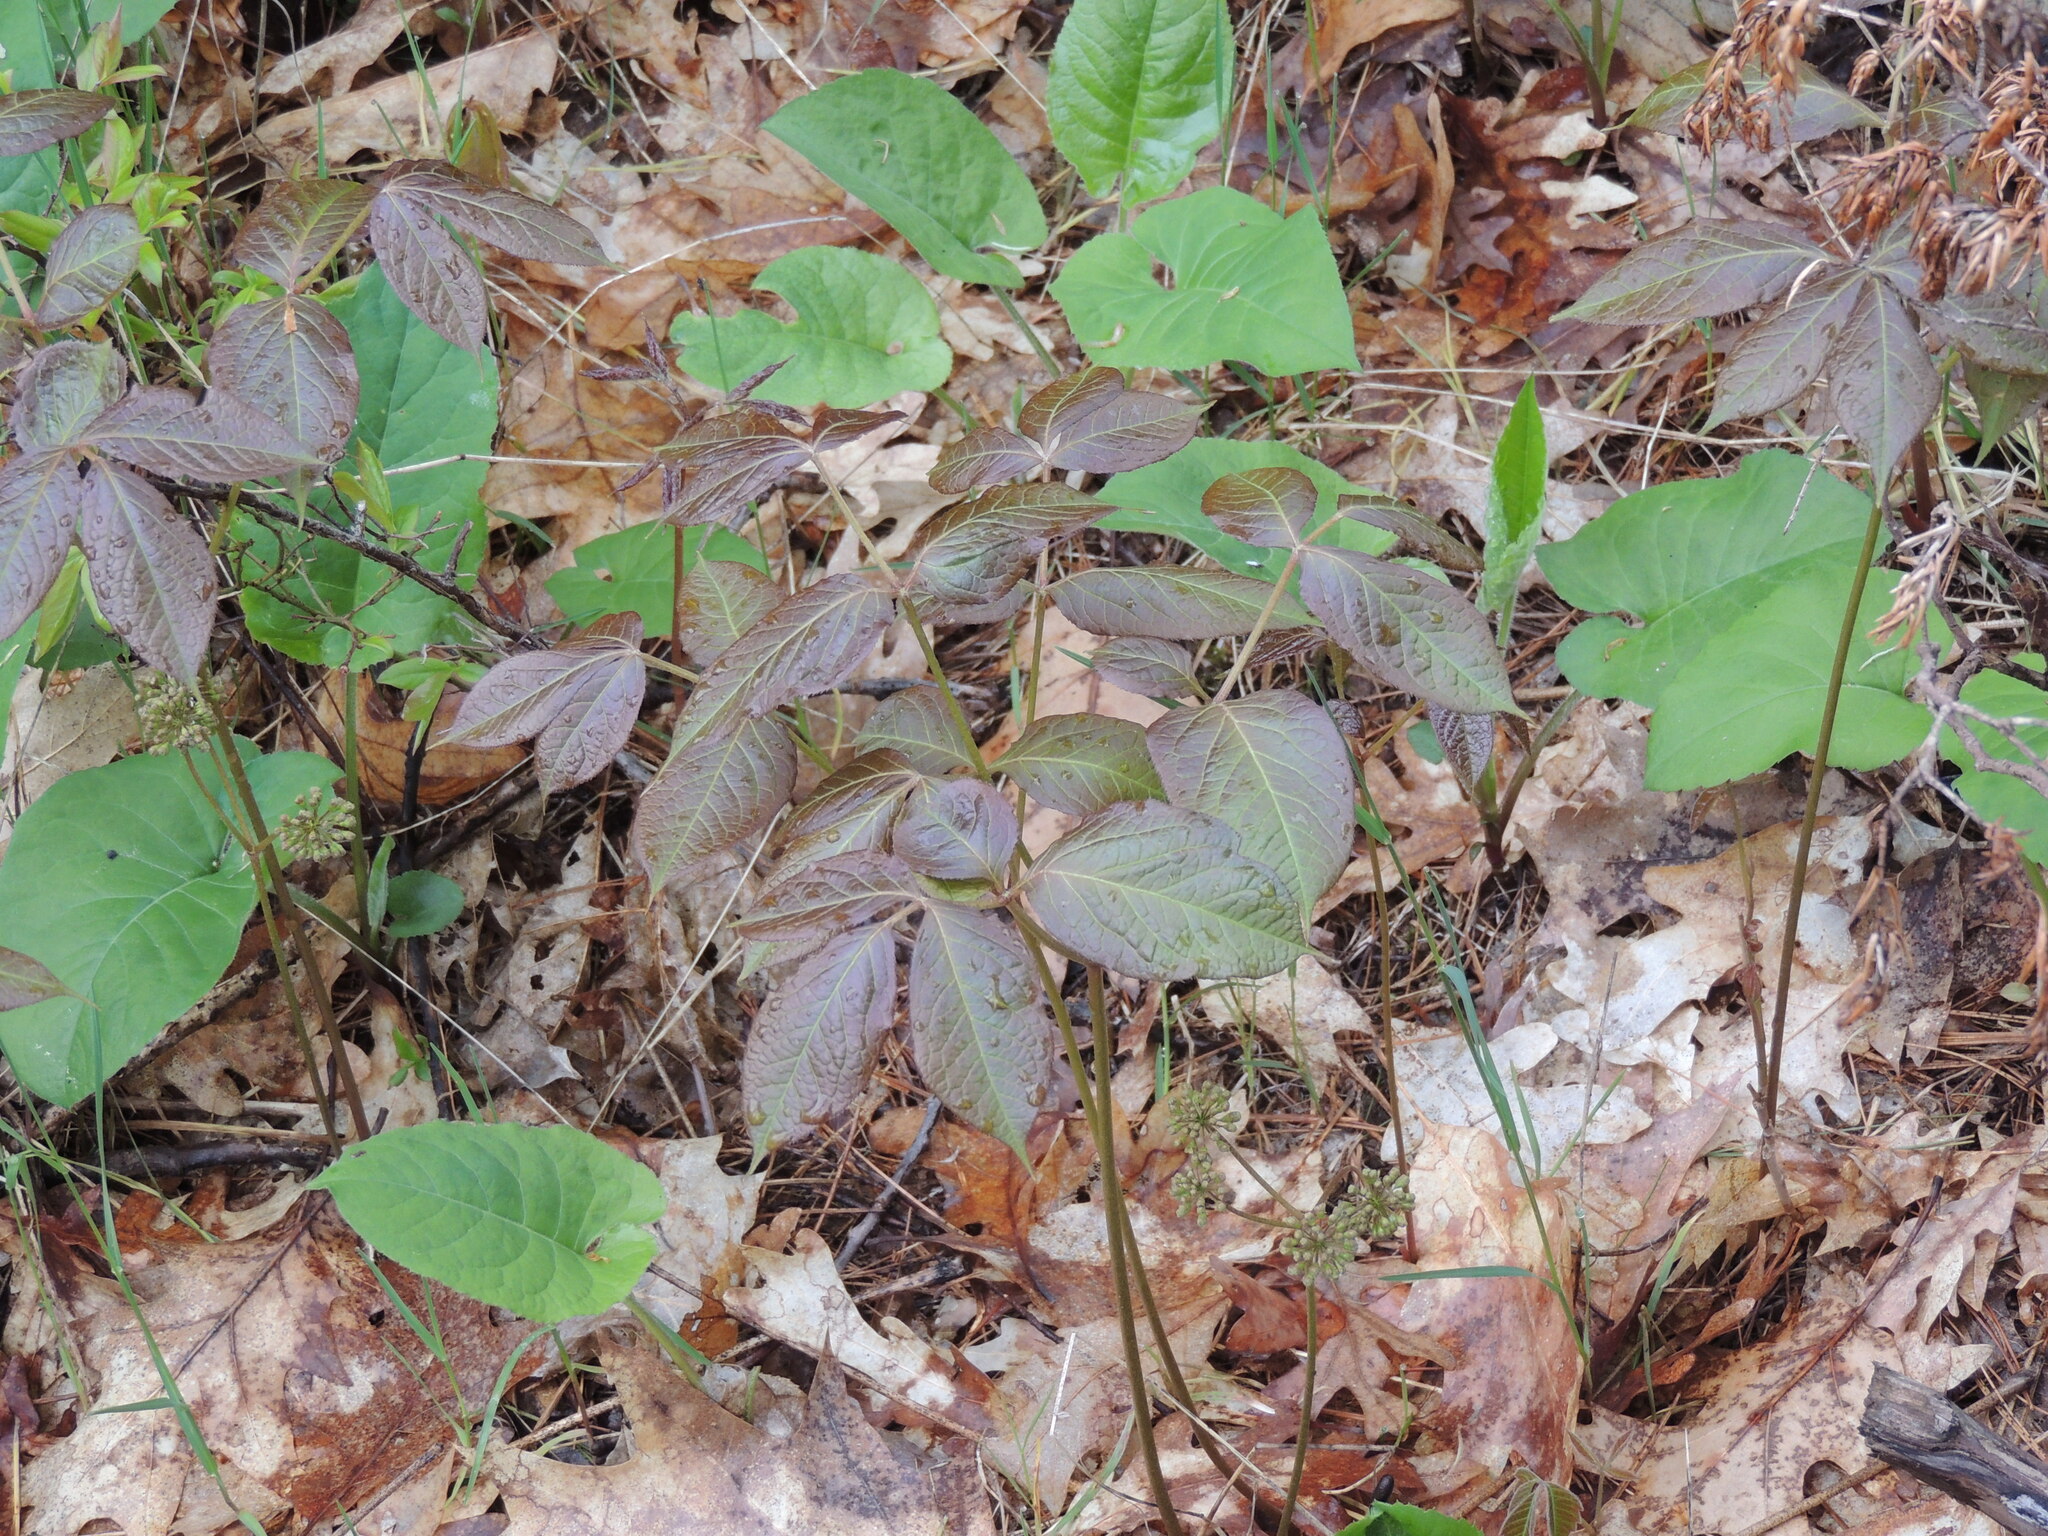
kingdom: Plantae
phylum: Tracheophyta
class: Magnoliopsida
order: Apiales
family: Araliaceae
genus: Aralia
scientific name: Aralia nudicaulis
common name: Wild sarsaparilla
